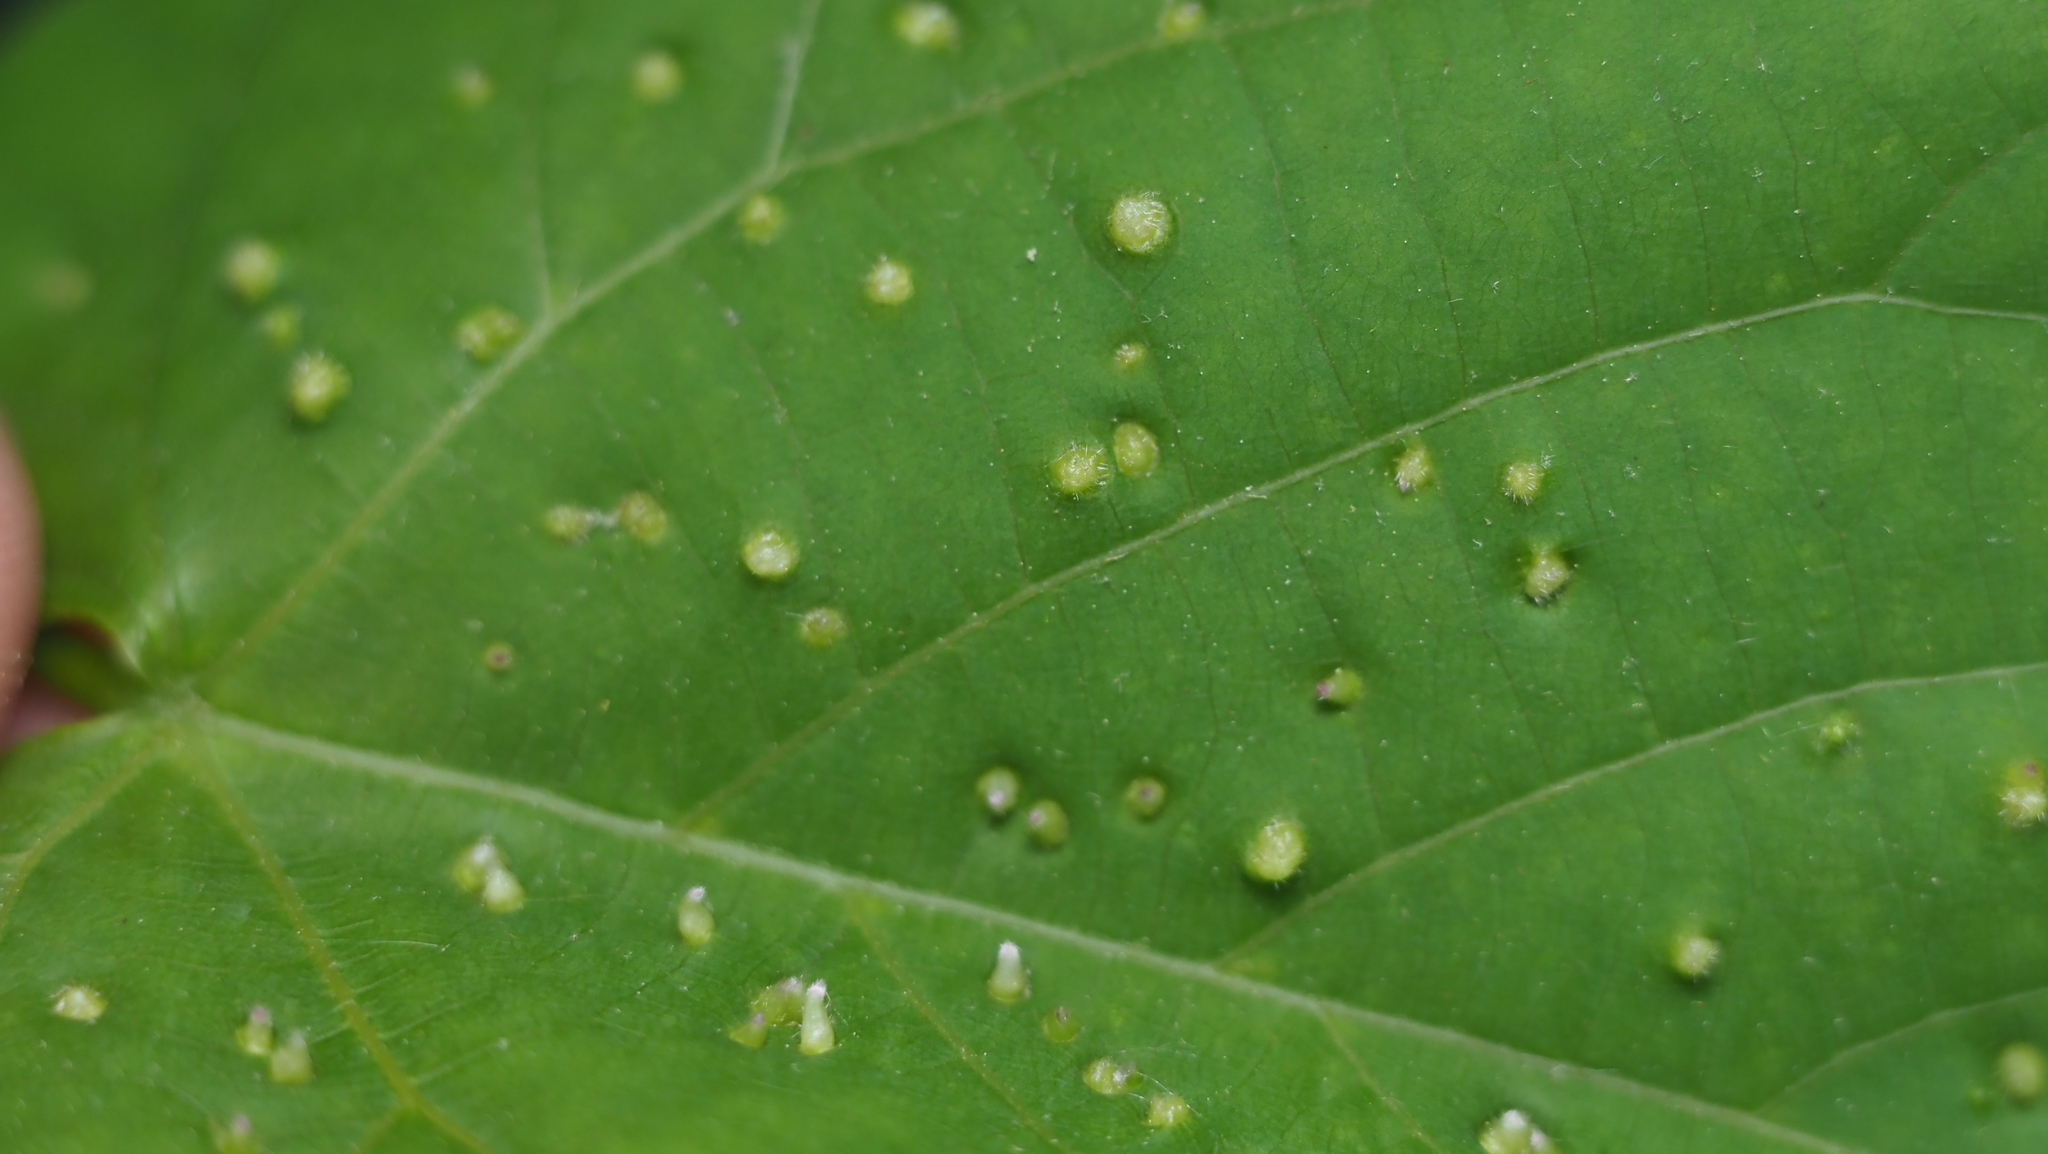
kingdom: Animalia
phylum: Arthropoda
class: Arachnida
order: Trombidiformes
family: Eriophyidae
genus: Eriophyes
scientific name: Eriophyes tiliae
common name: Red nail gall mite
